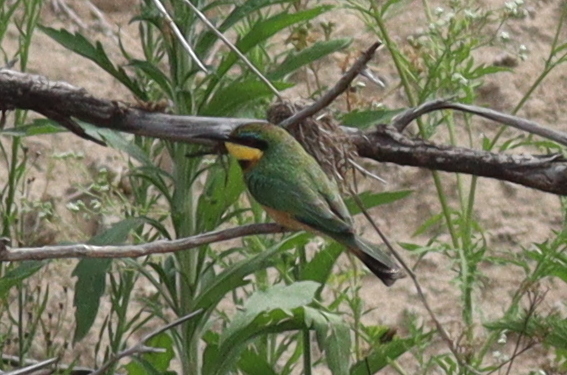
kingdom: Animalia
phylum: Chordata
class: Aves
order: Coraciiformes
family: Meropidae
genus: Merops
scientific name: Merops pusillus
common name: Little bee-eater
